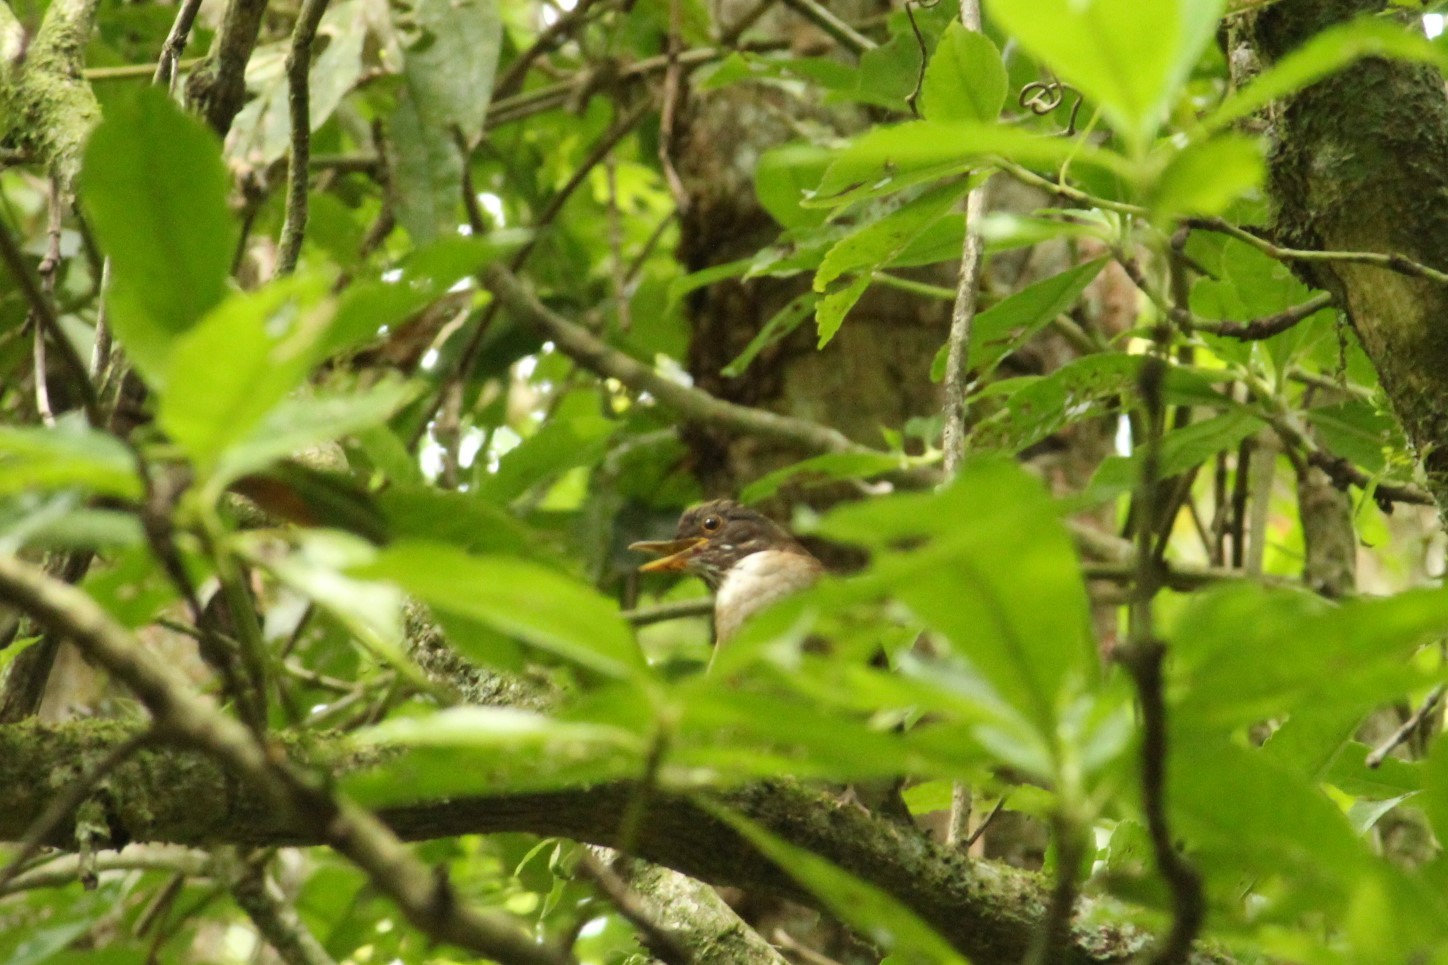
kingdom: Animalia
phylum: Chordata
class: Aves
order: Passeriformes
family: Turdidae
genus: Turdus
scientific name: Turdus albicollis
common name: White-necked thrush
